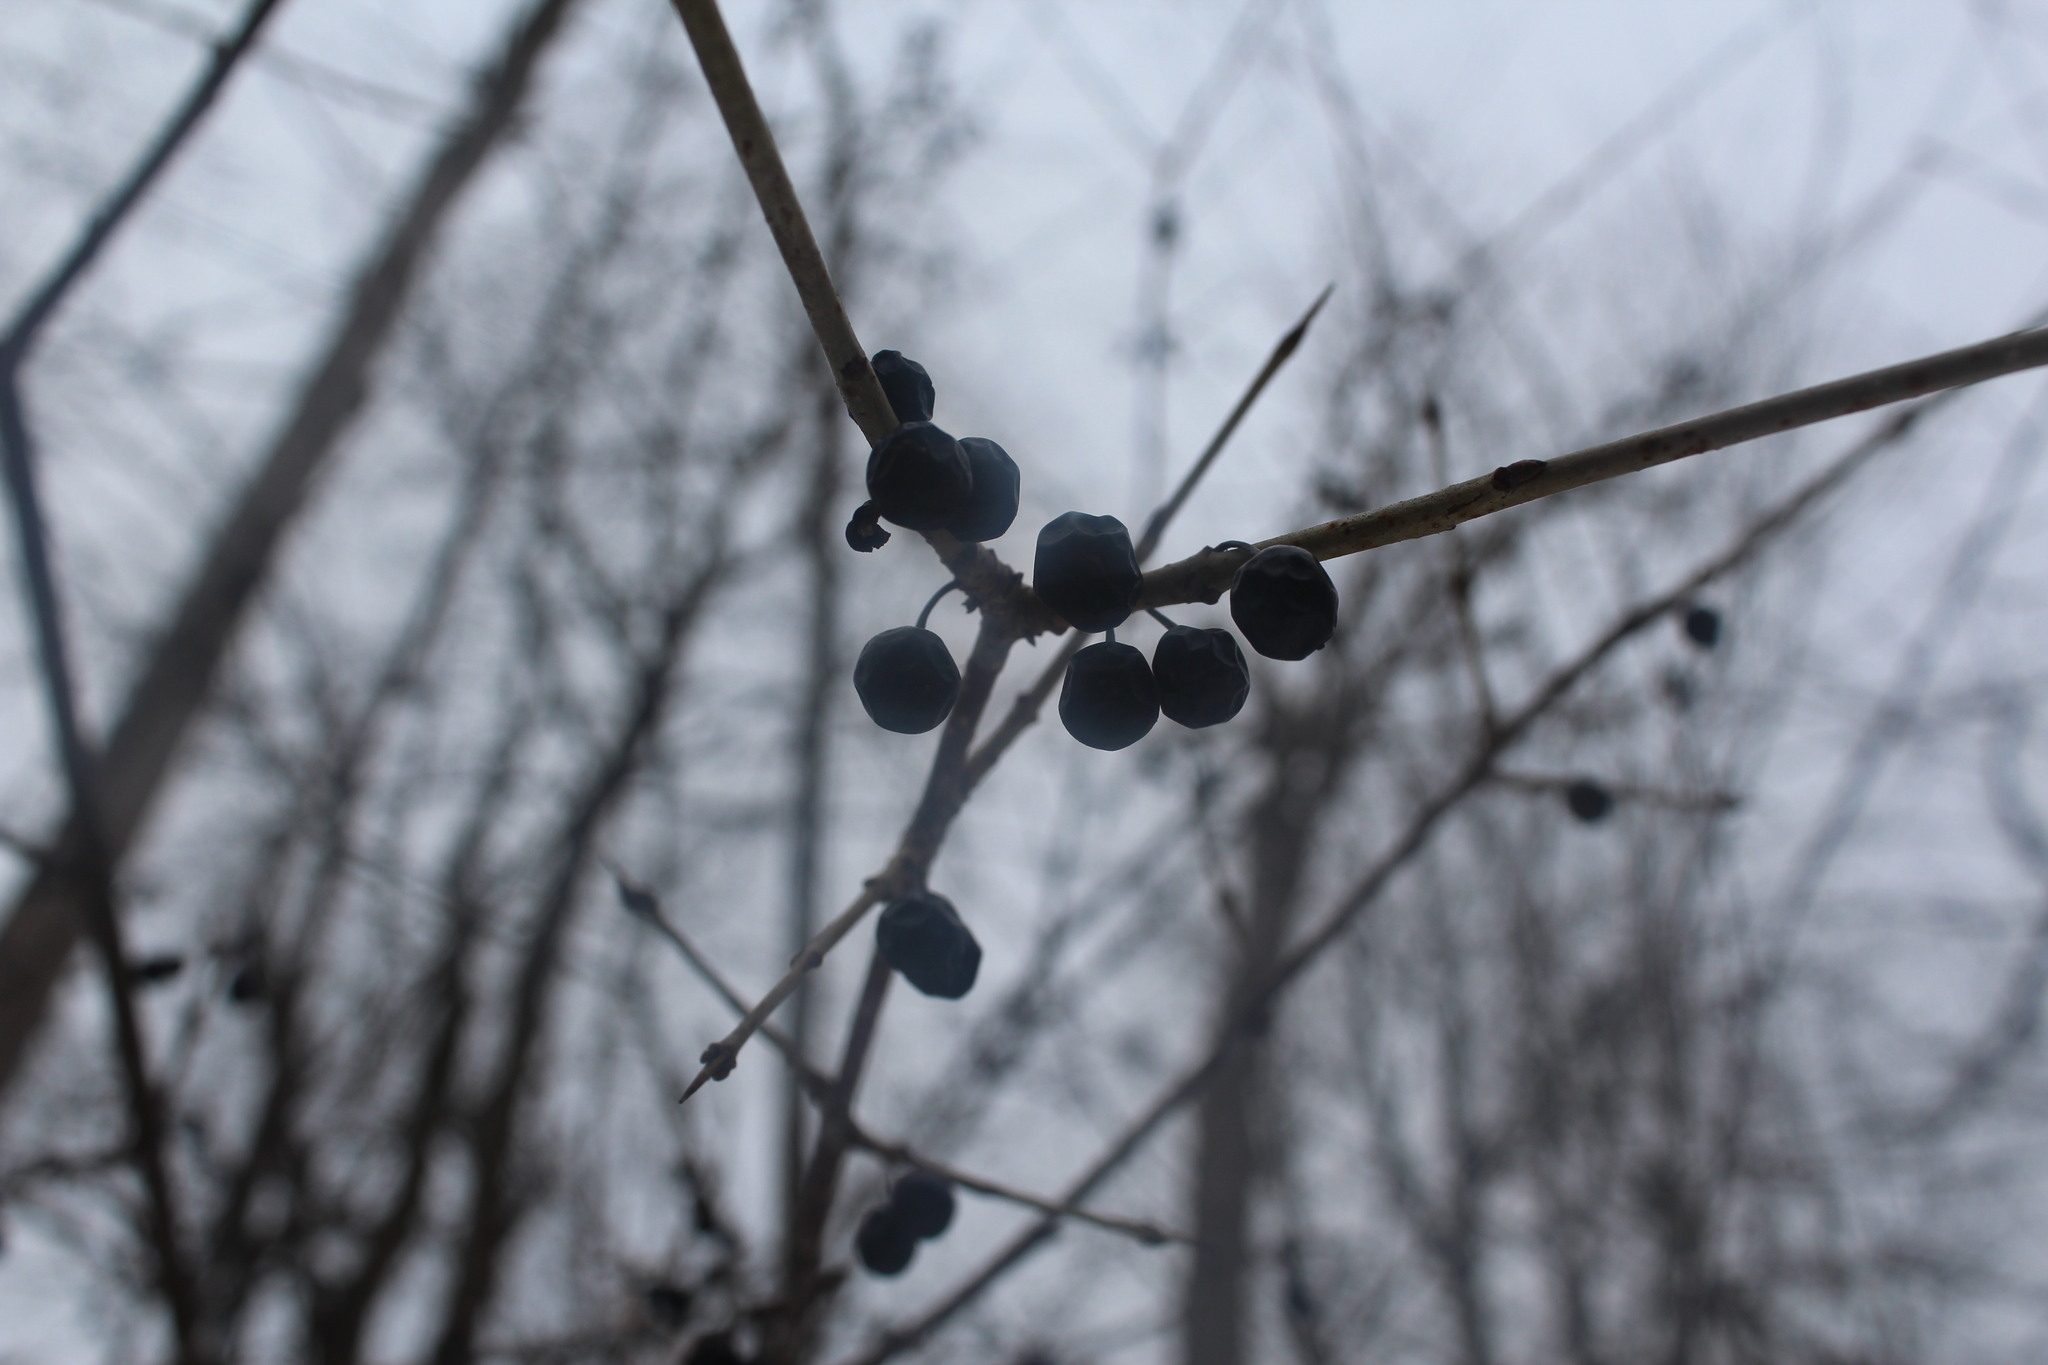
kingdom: Plantae
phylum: Tracheophyta
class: Magnoliopsida
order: Rosales
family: Rhamnaceae
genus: Rhamnus
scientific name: Rhamnus cathartica
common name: Common buckthorn
